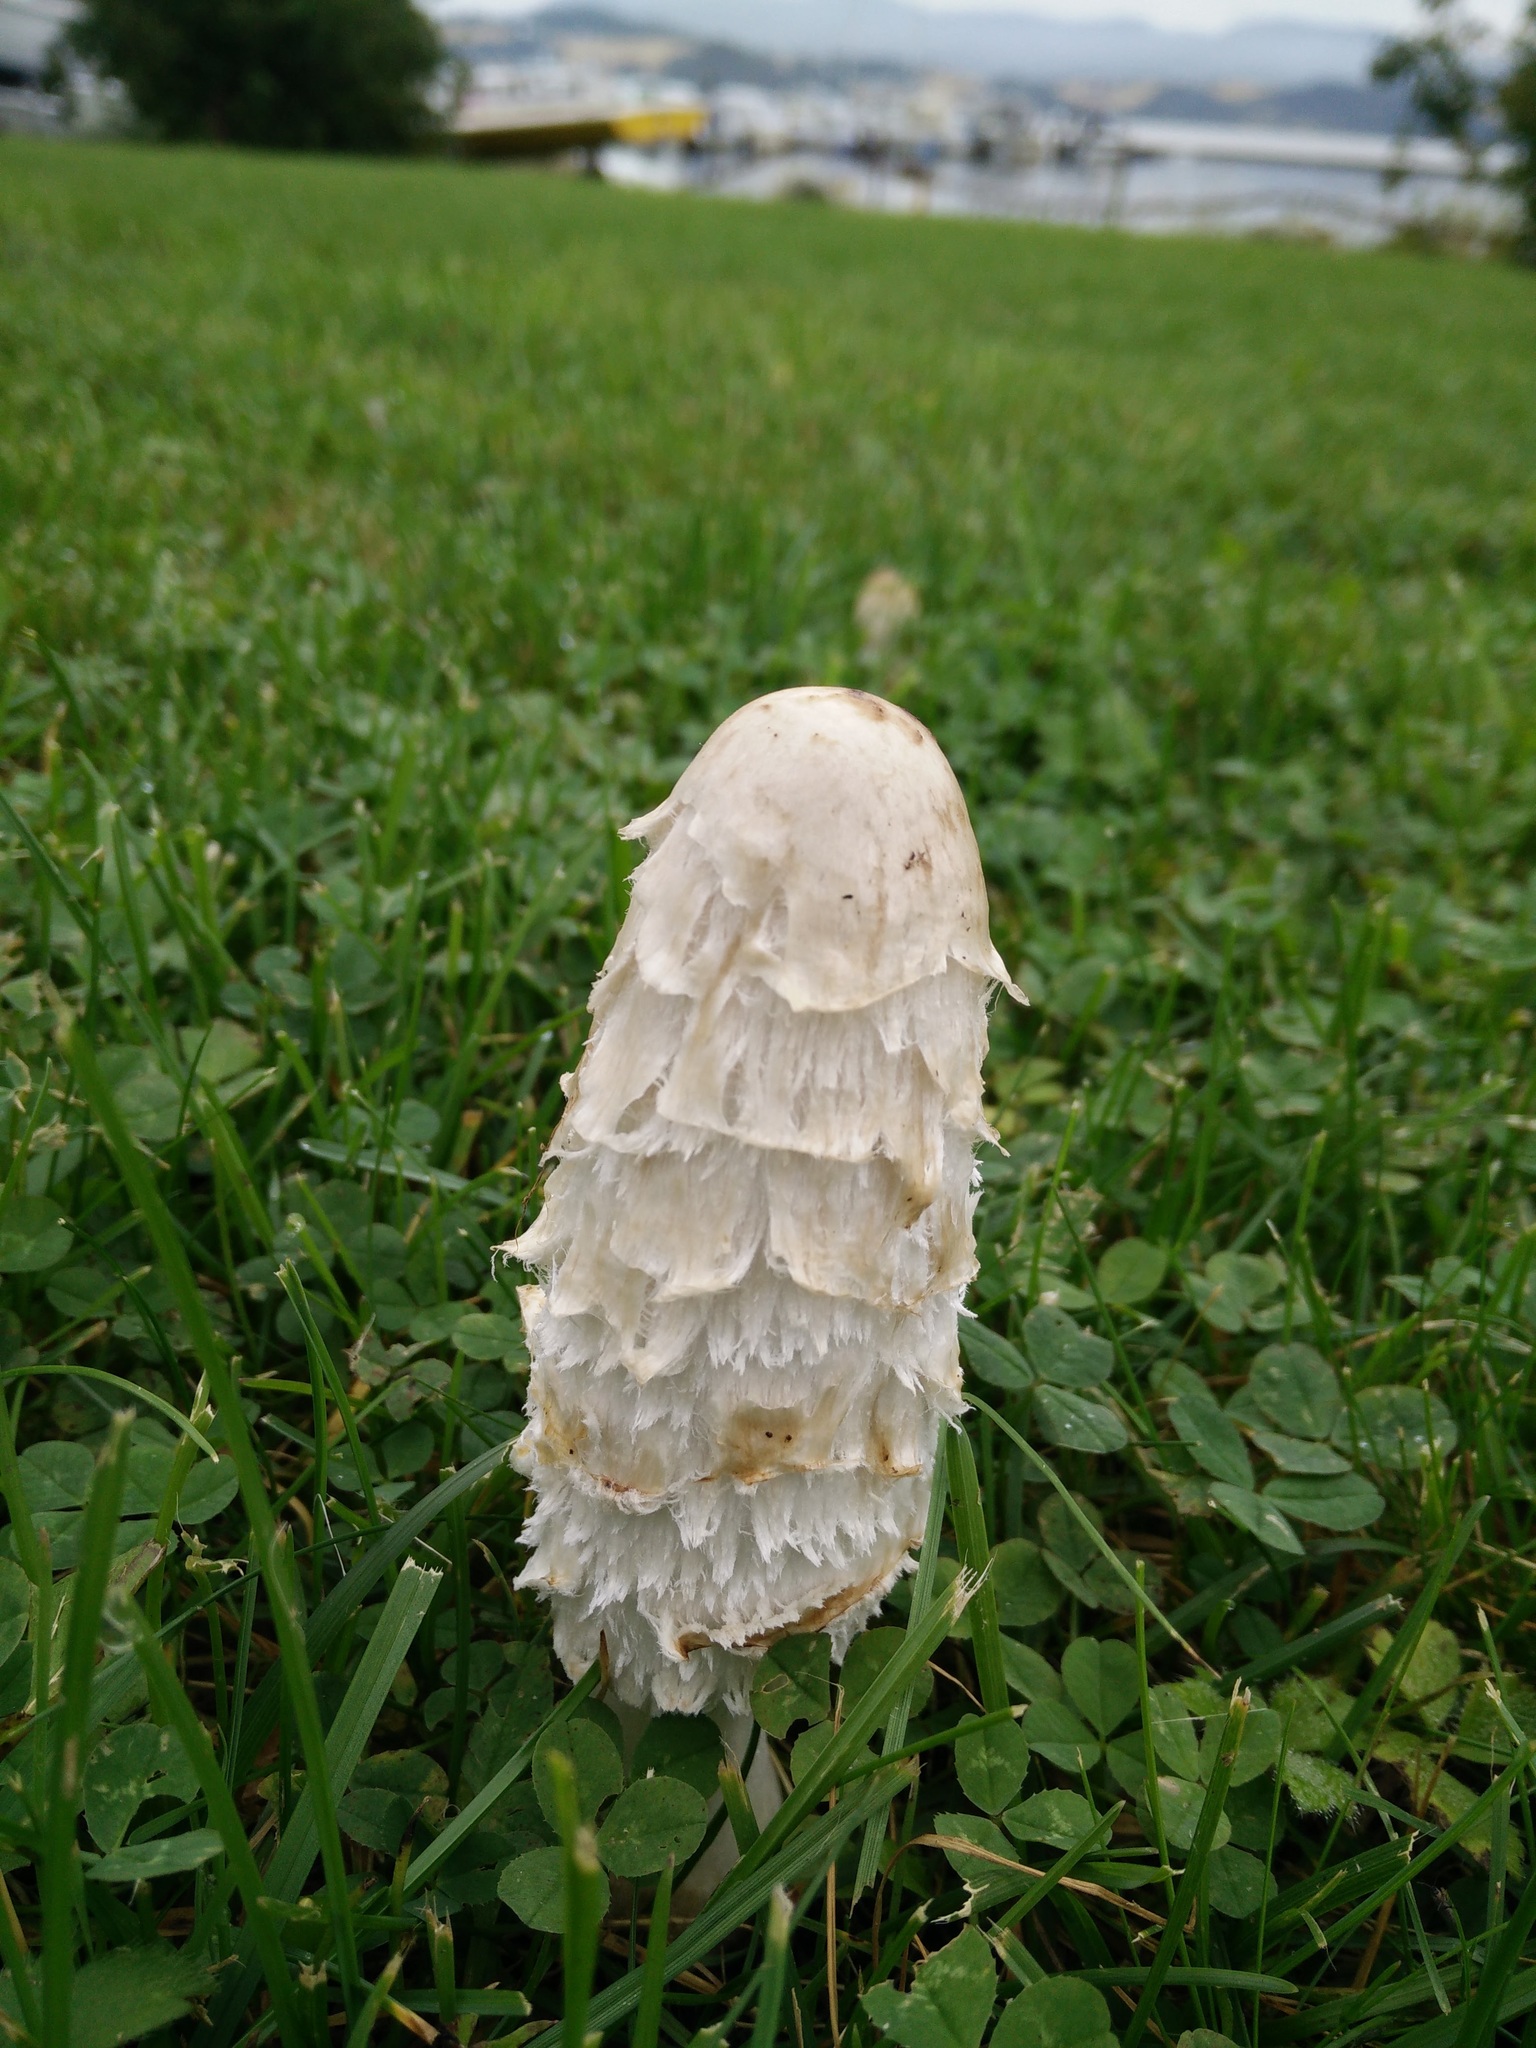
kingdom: Fungi
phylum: Basidiomycota
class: Agaricomycetes
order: Agaricales
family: Agaricaceae
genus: Coprinus
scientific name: Coprinus comatus
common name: Lawyer's wig
